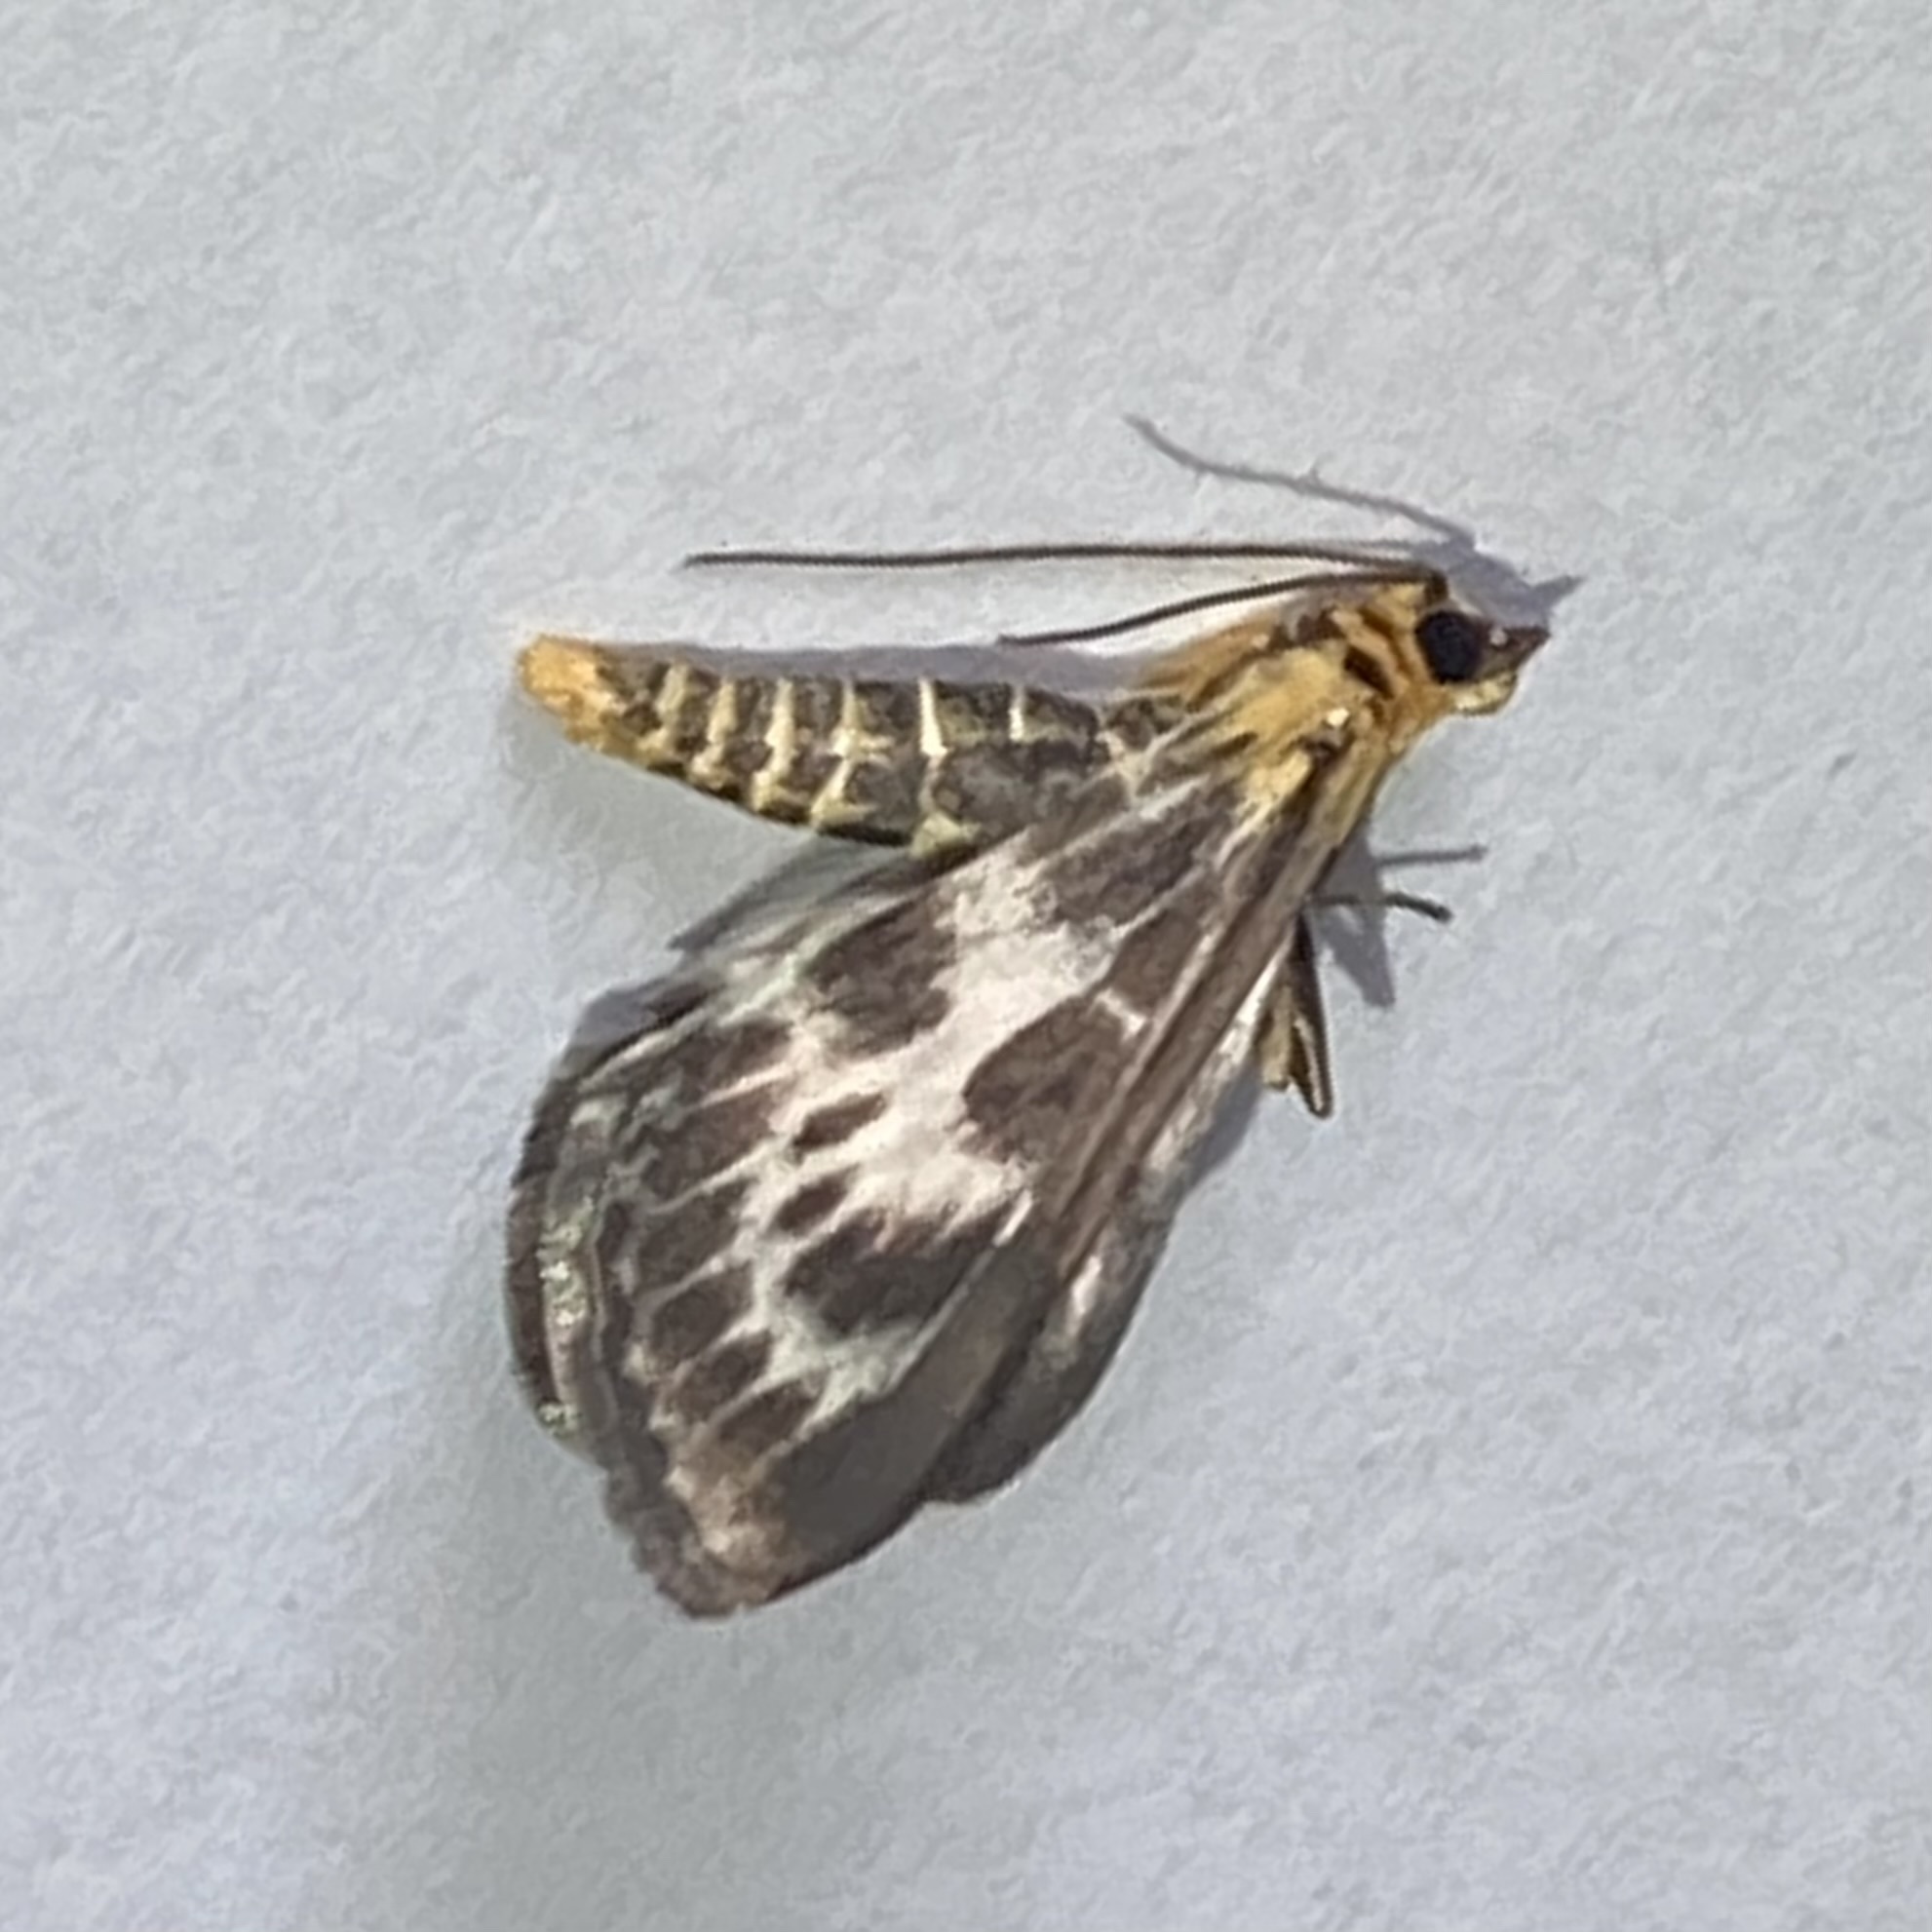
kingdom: Animalia
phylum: Arthropoda
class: Insecta
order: Lepidoptera
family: Crambidae
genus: Anania
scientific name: Anania hortulata
